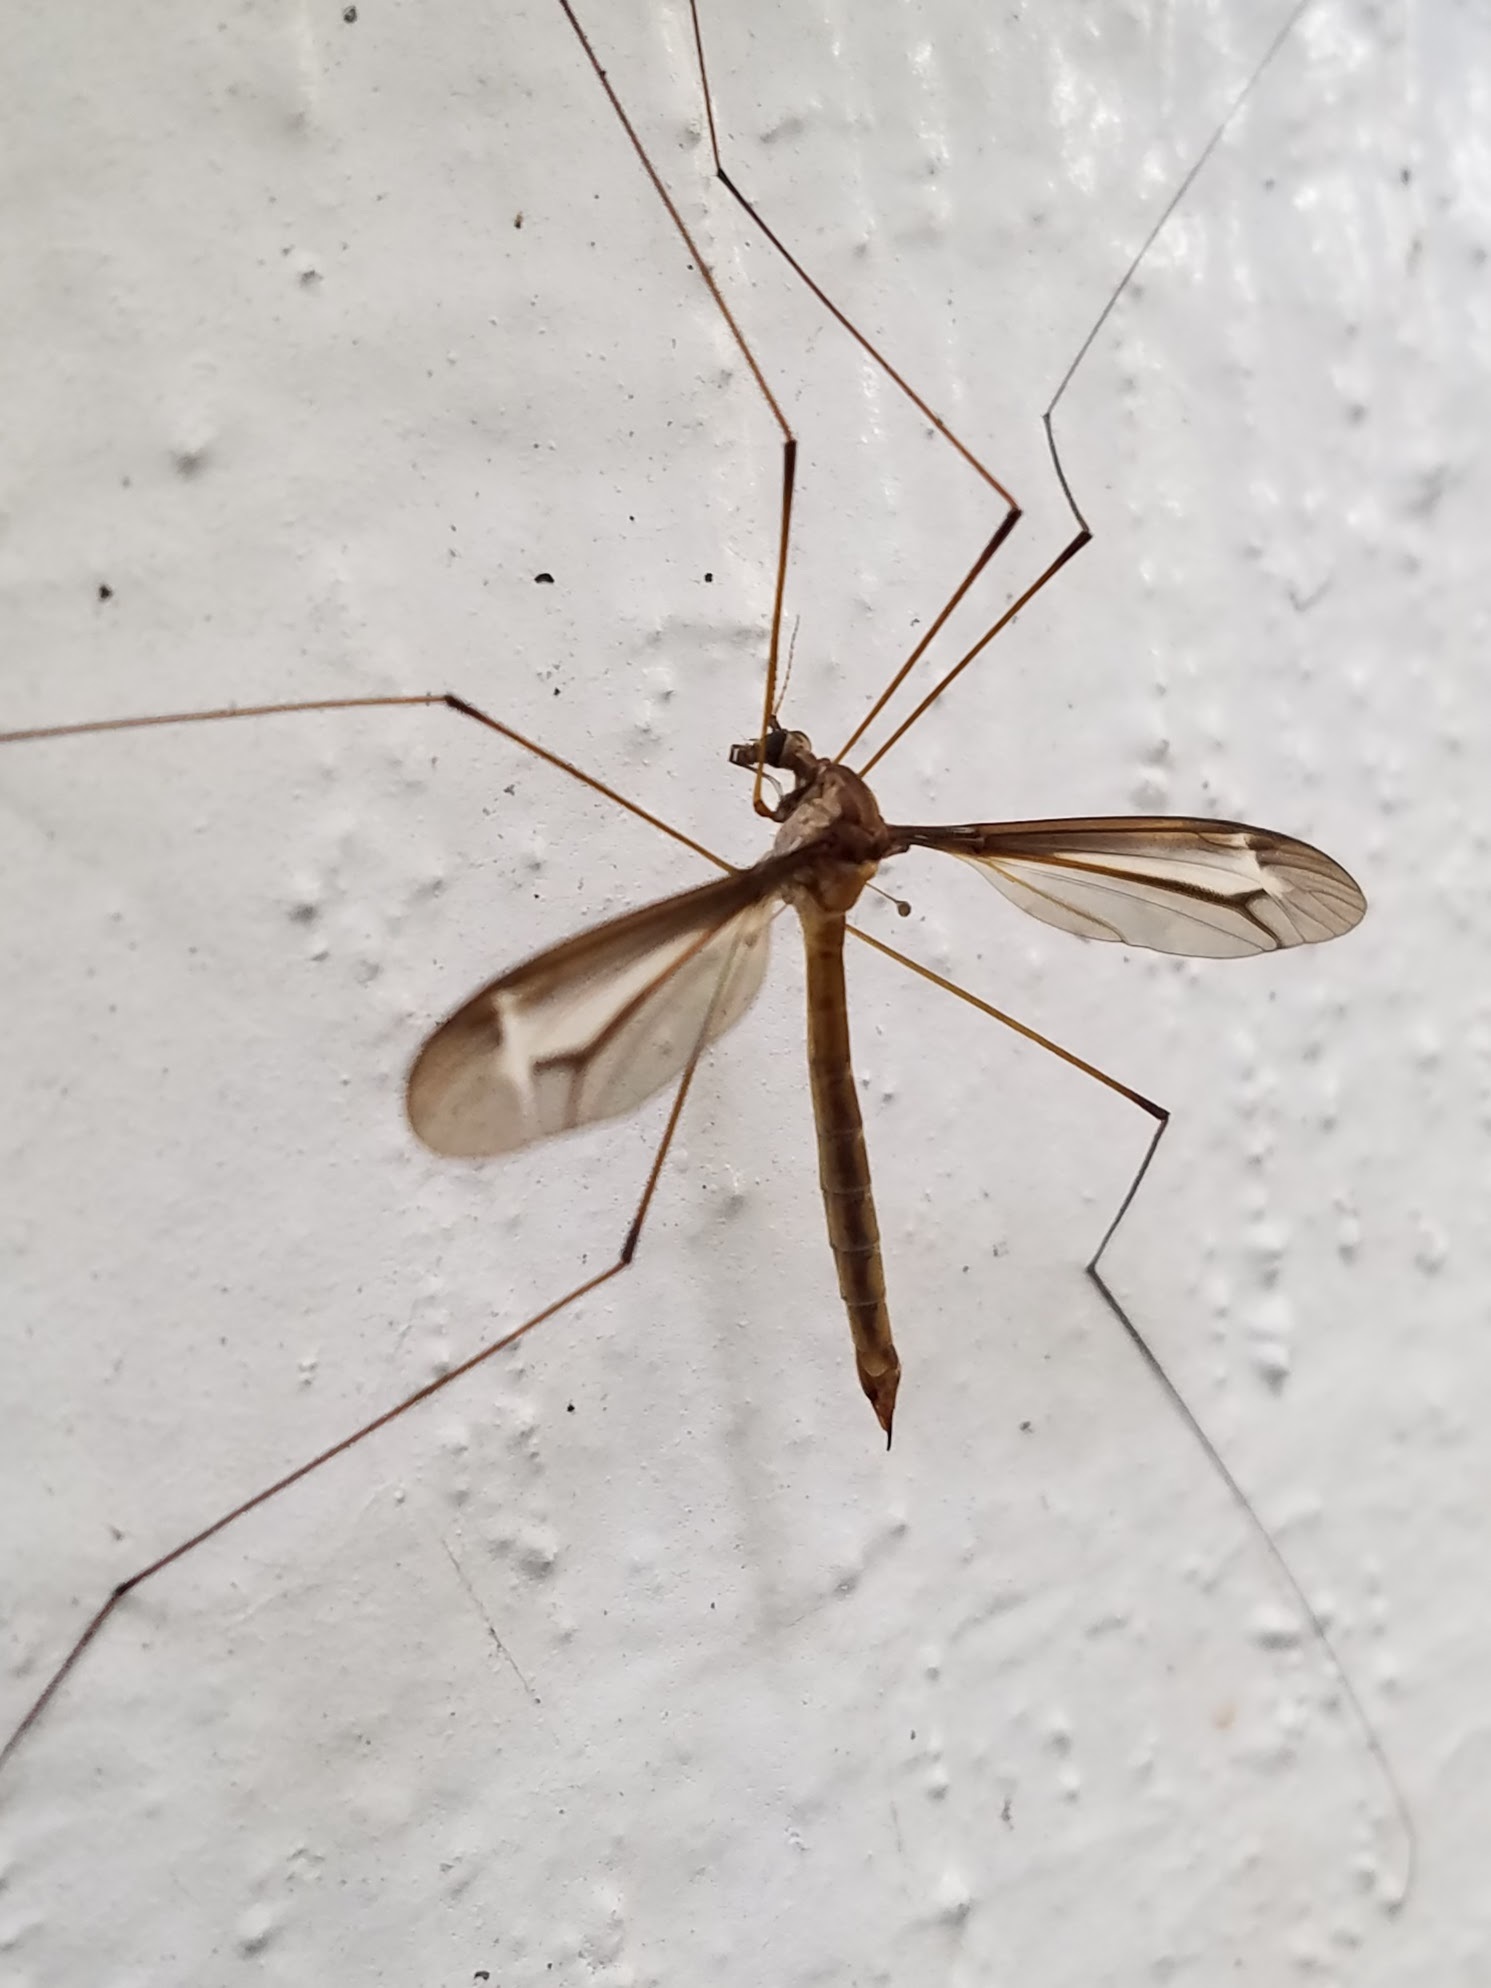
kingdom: Animalia
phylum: Arthropoda
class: Insecta
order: Diptera
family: Tipulidae
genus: Tipula
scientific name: Tipula tricolor
